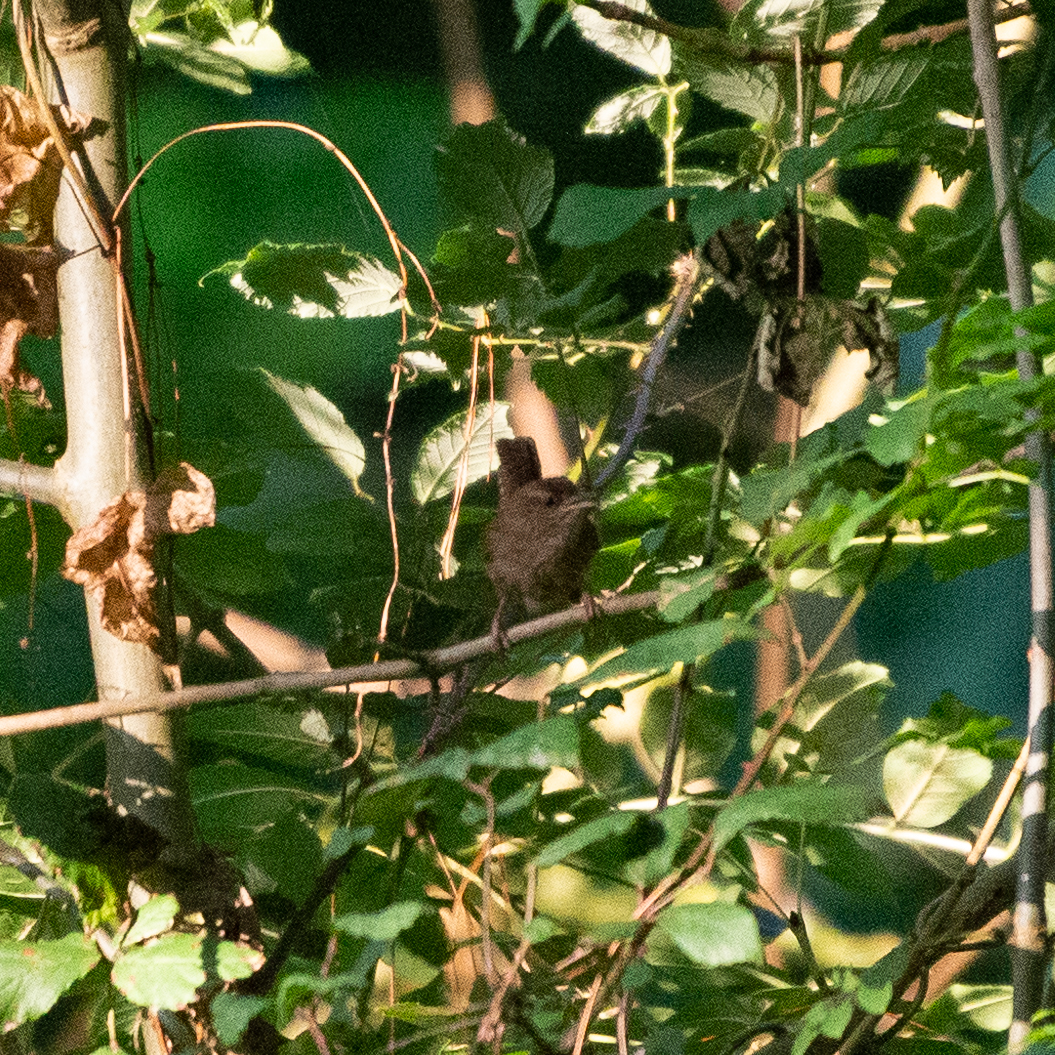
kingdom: Animalia
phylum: Chordata
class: Aves
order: Passeriformes
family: Troglodytidae
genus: Troglodytes
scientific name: Troglodytes troglodytes
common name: Eurasian wren
